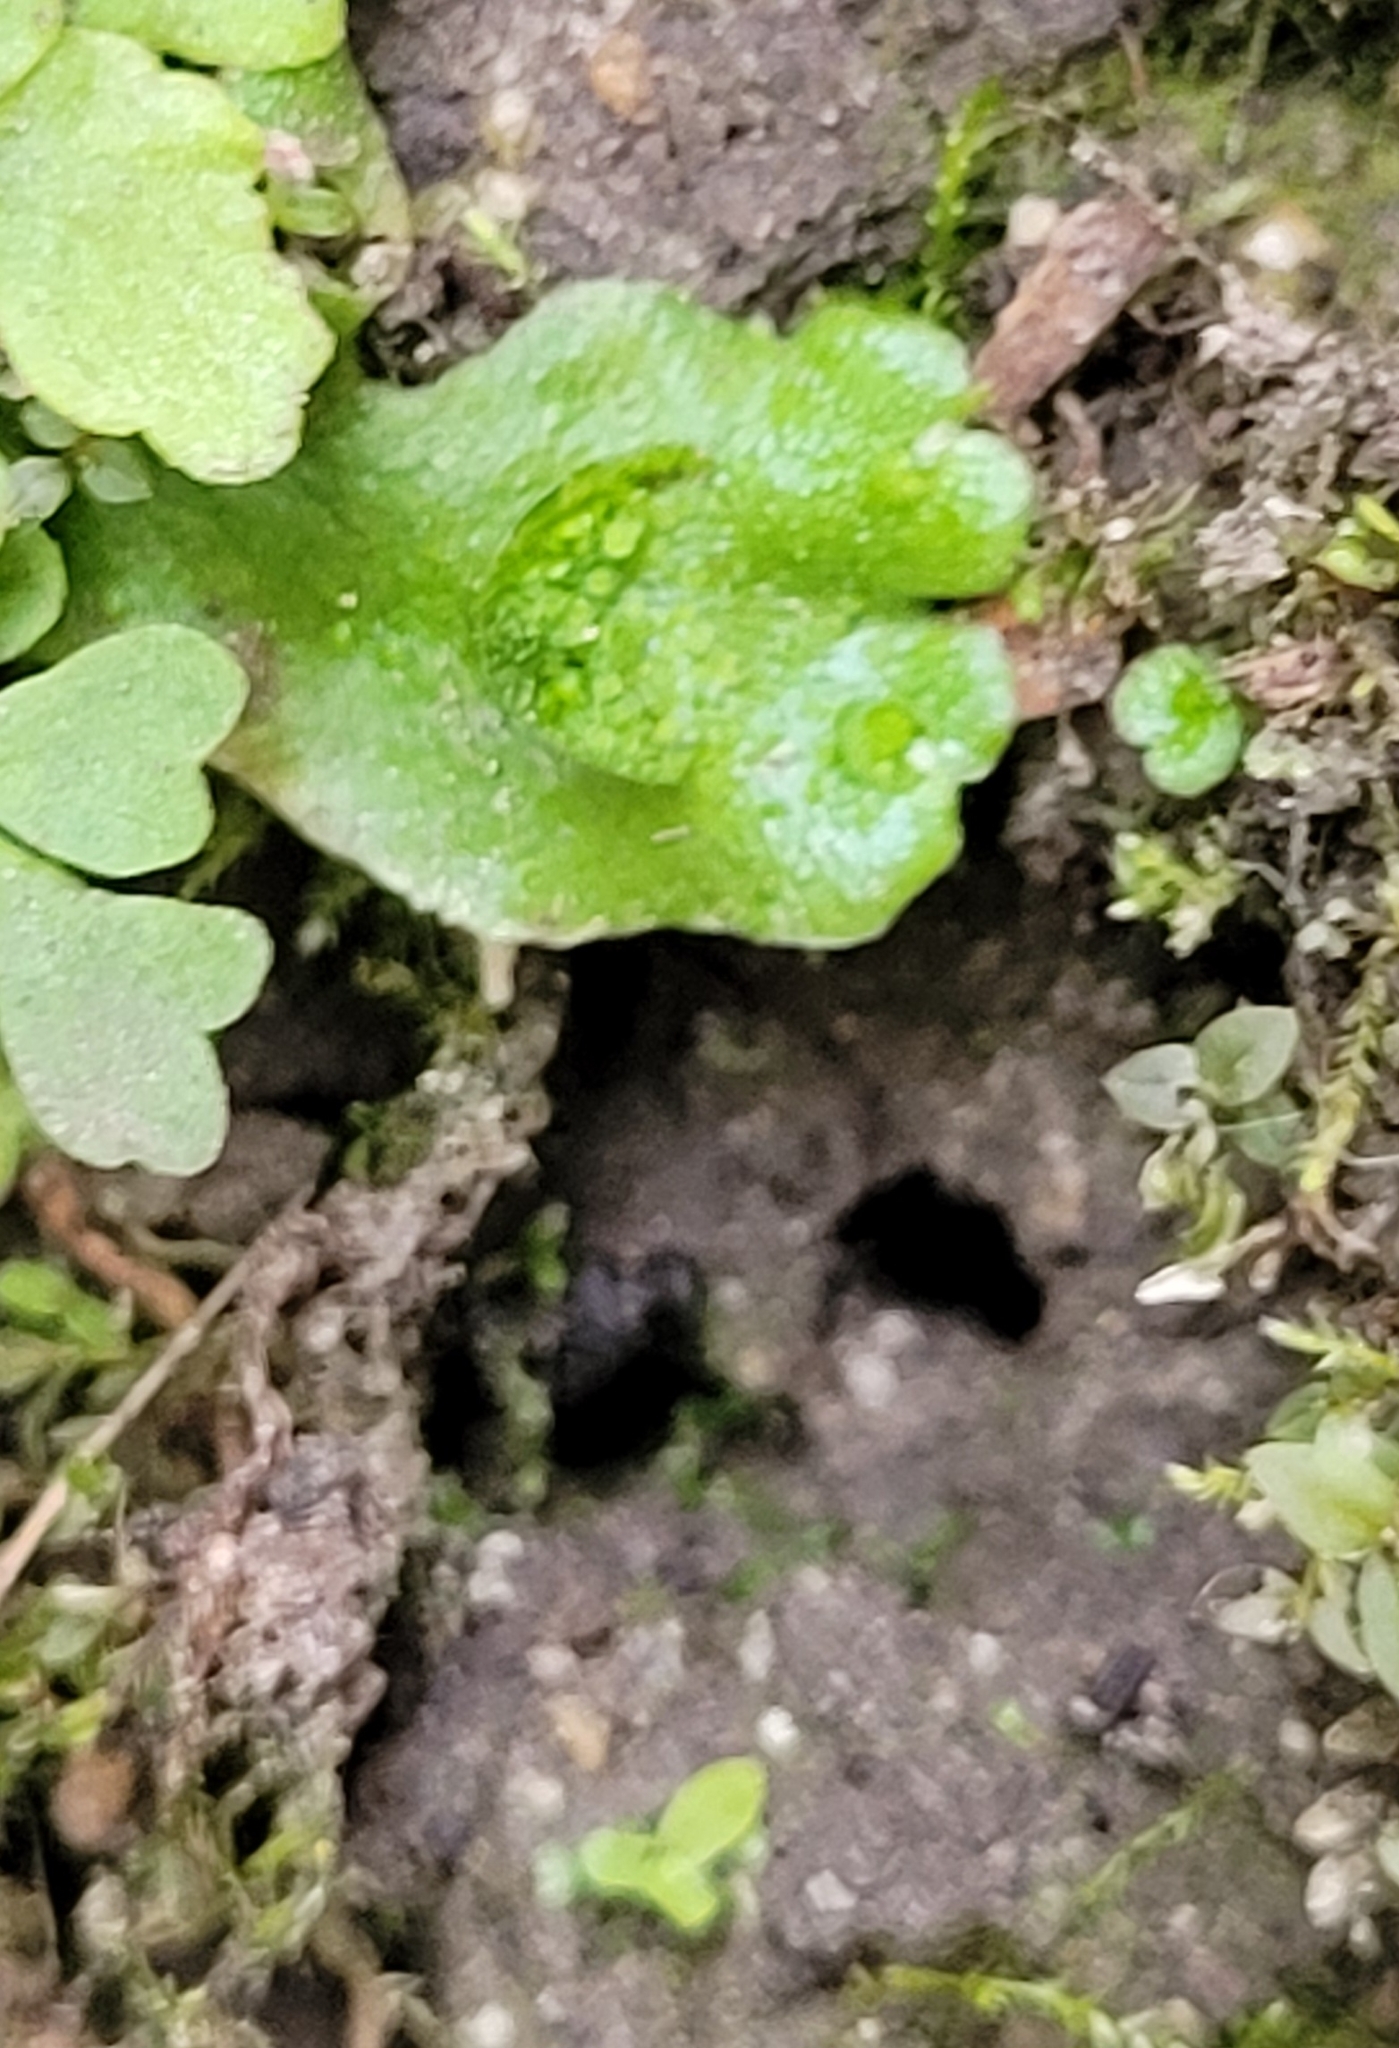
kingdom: Plantae
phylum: Marchantiophyta
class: Marchantiopsida
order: Lunulariales
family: Lunulariaceae
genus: Lunularia
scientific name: Lunularia cruciata
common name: Crescent-cup liverwort
